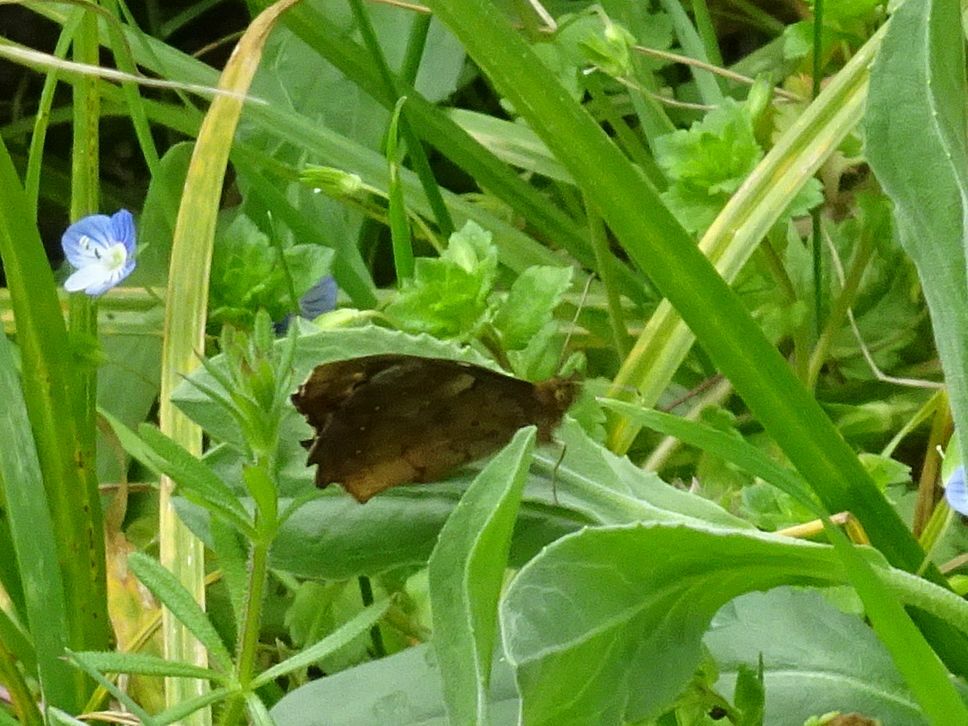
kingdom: Animalia
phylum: Arthropoda
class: Insecta
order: Lepidoptera
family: Nymphalidae
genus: Pararge
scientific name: Pararge aegeria
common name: Speckled wood
